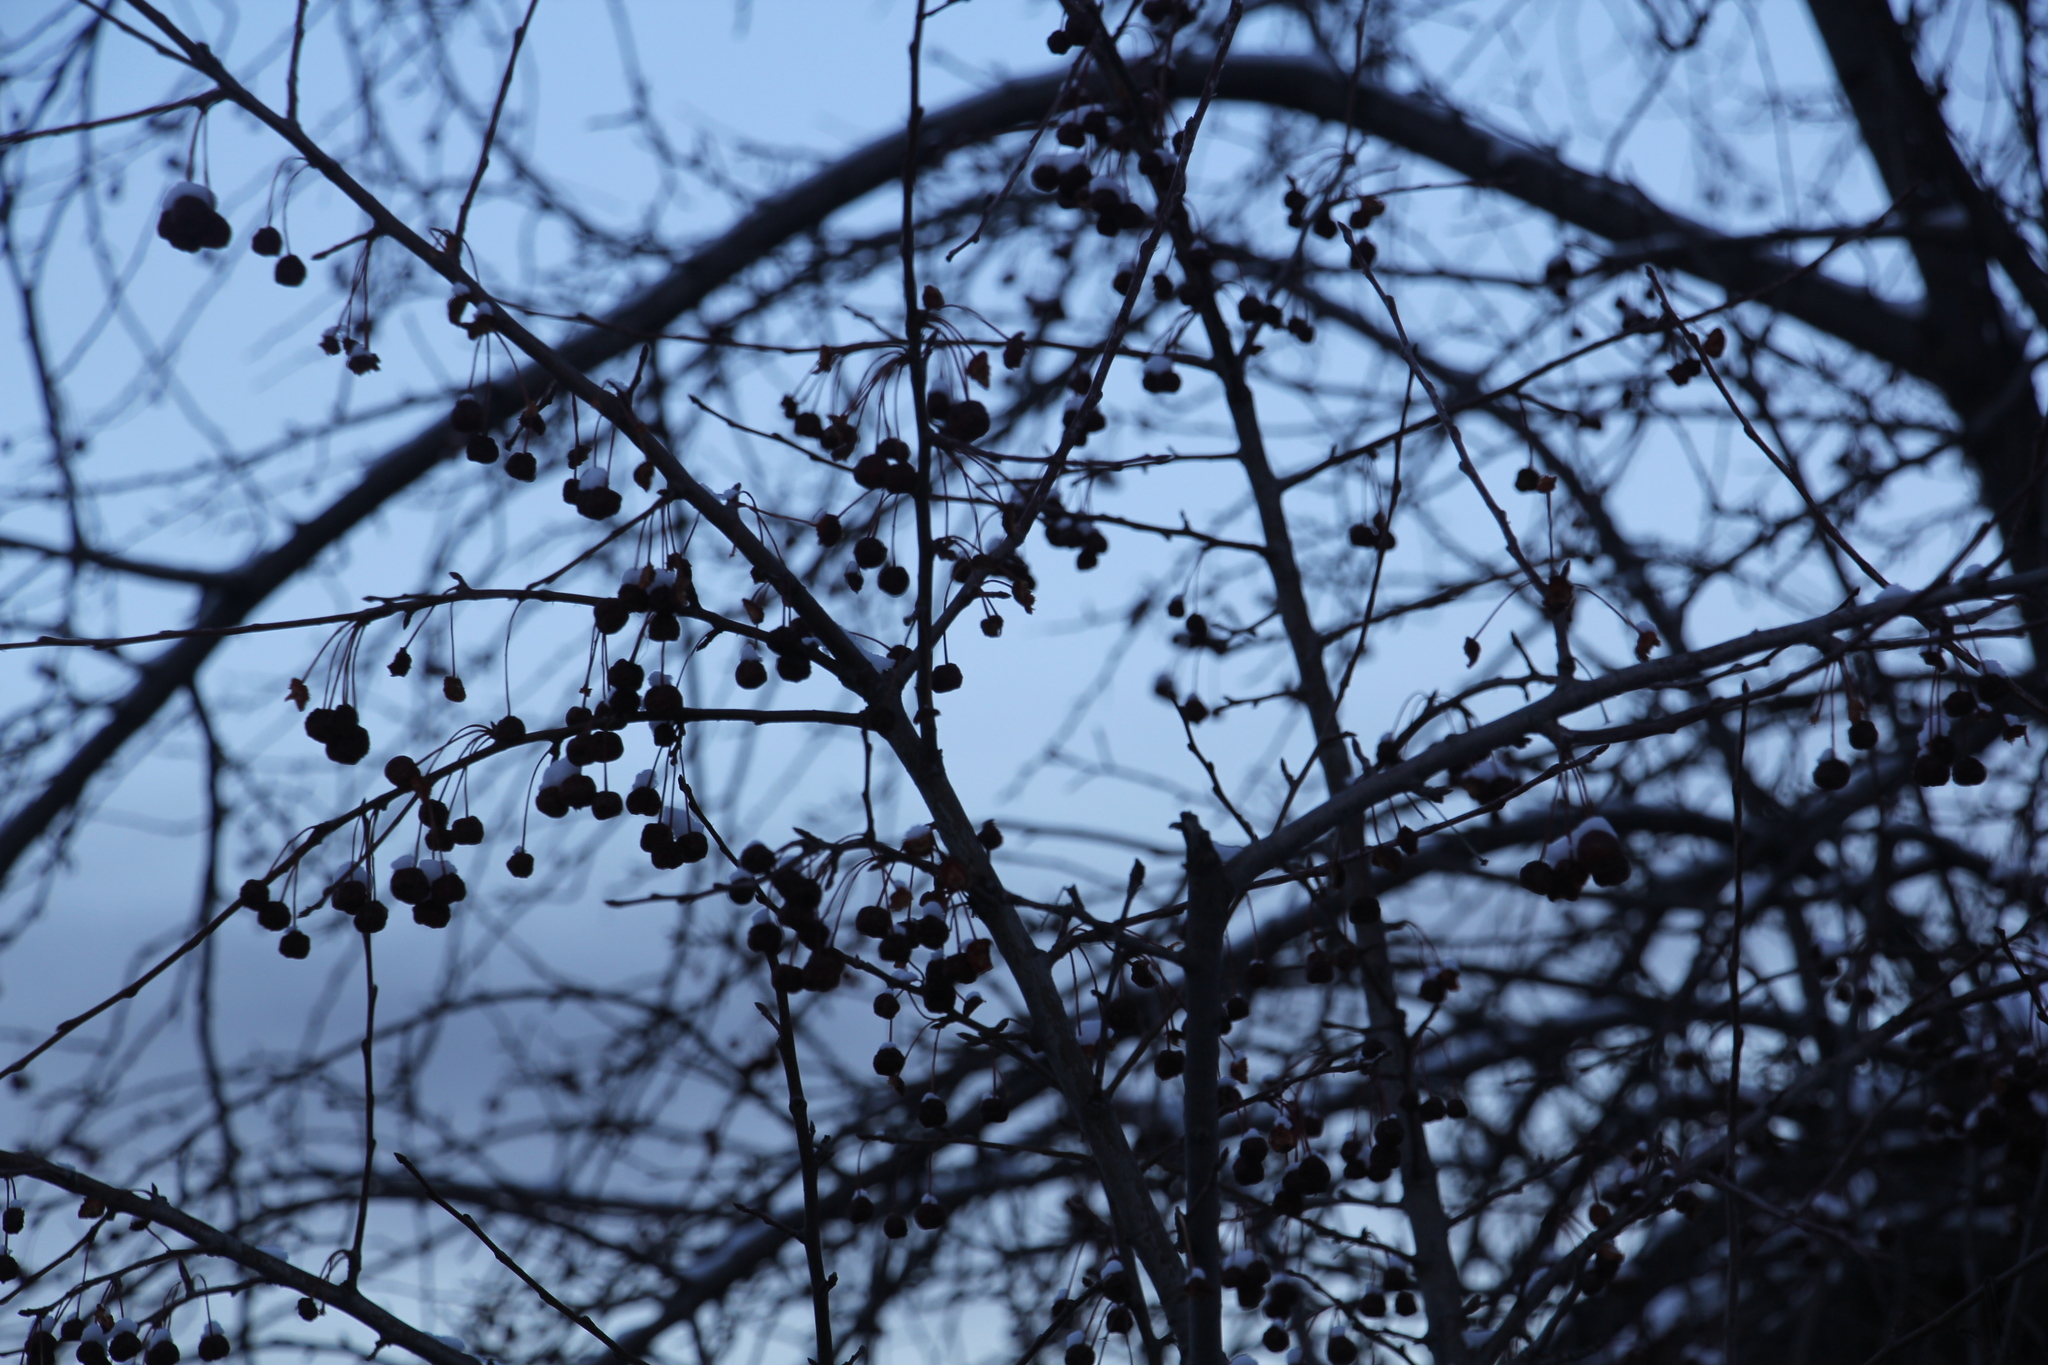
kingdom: Plantae
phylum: Tracheophyta
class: Magnoliopsida
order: Rosales
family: Rosaceae
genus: Malus
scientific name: Malus baccata
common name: Siberian crab
